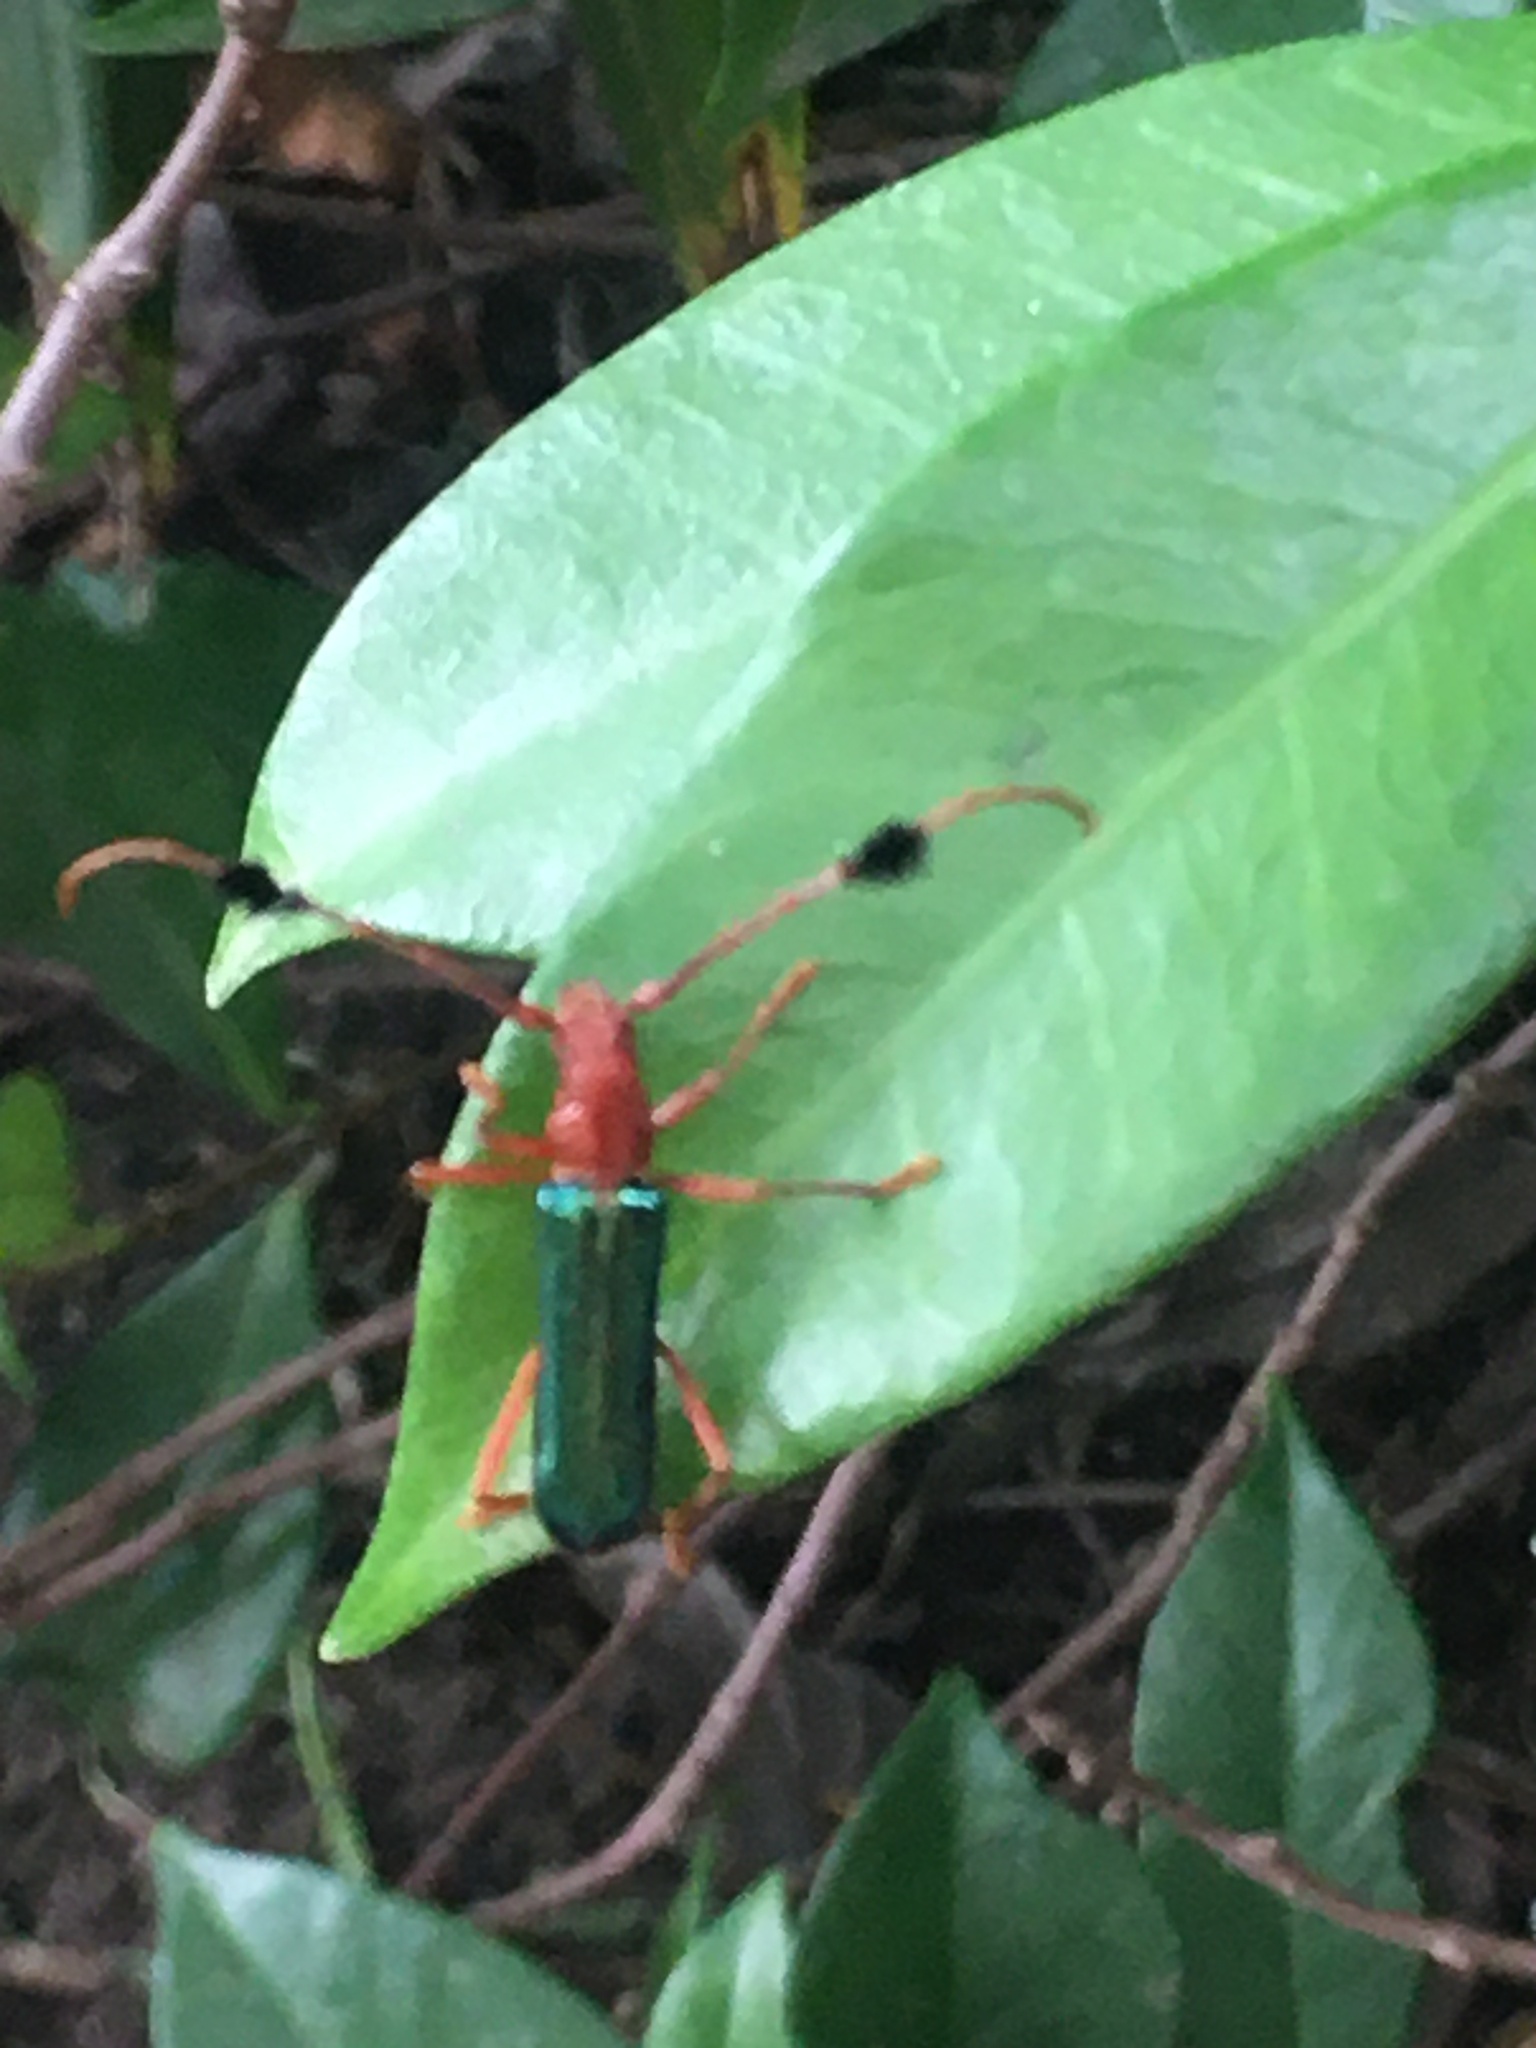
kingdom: Animalia
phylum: Arthropoda
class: Insecta
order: Coleoptera
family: Cerambycidae
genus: Compsocerus
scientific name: Compsocerus violaceus
